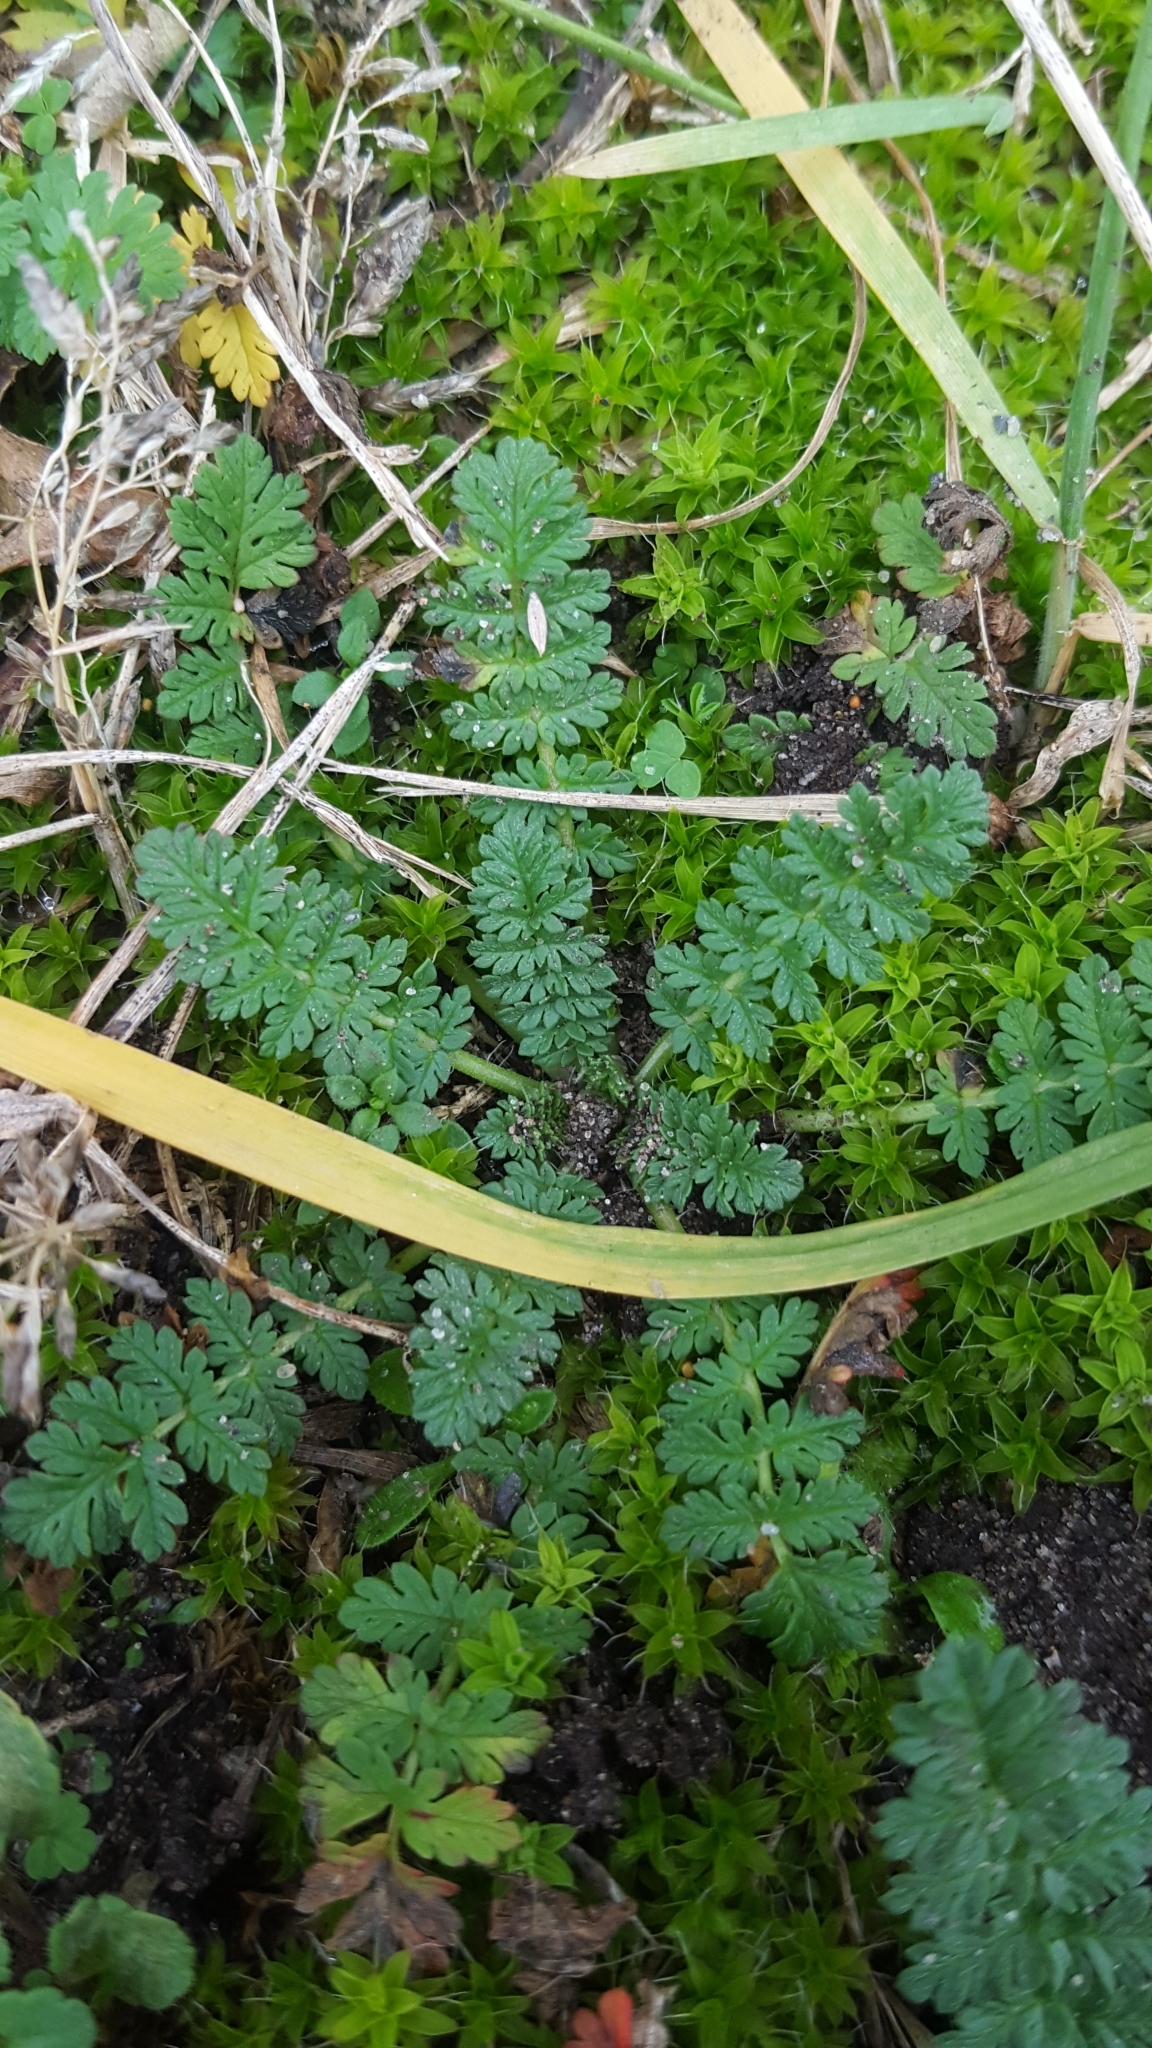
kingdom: Plantae
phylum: Tracheophyta
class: Magnoliopsida
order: Geraniales
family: Geraniaceae
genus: Erodium
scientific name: Erodium cicutarium
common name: Common stork's-bill
